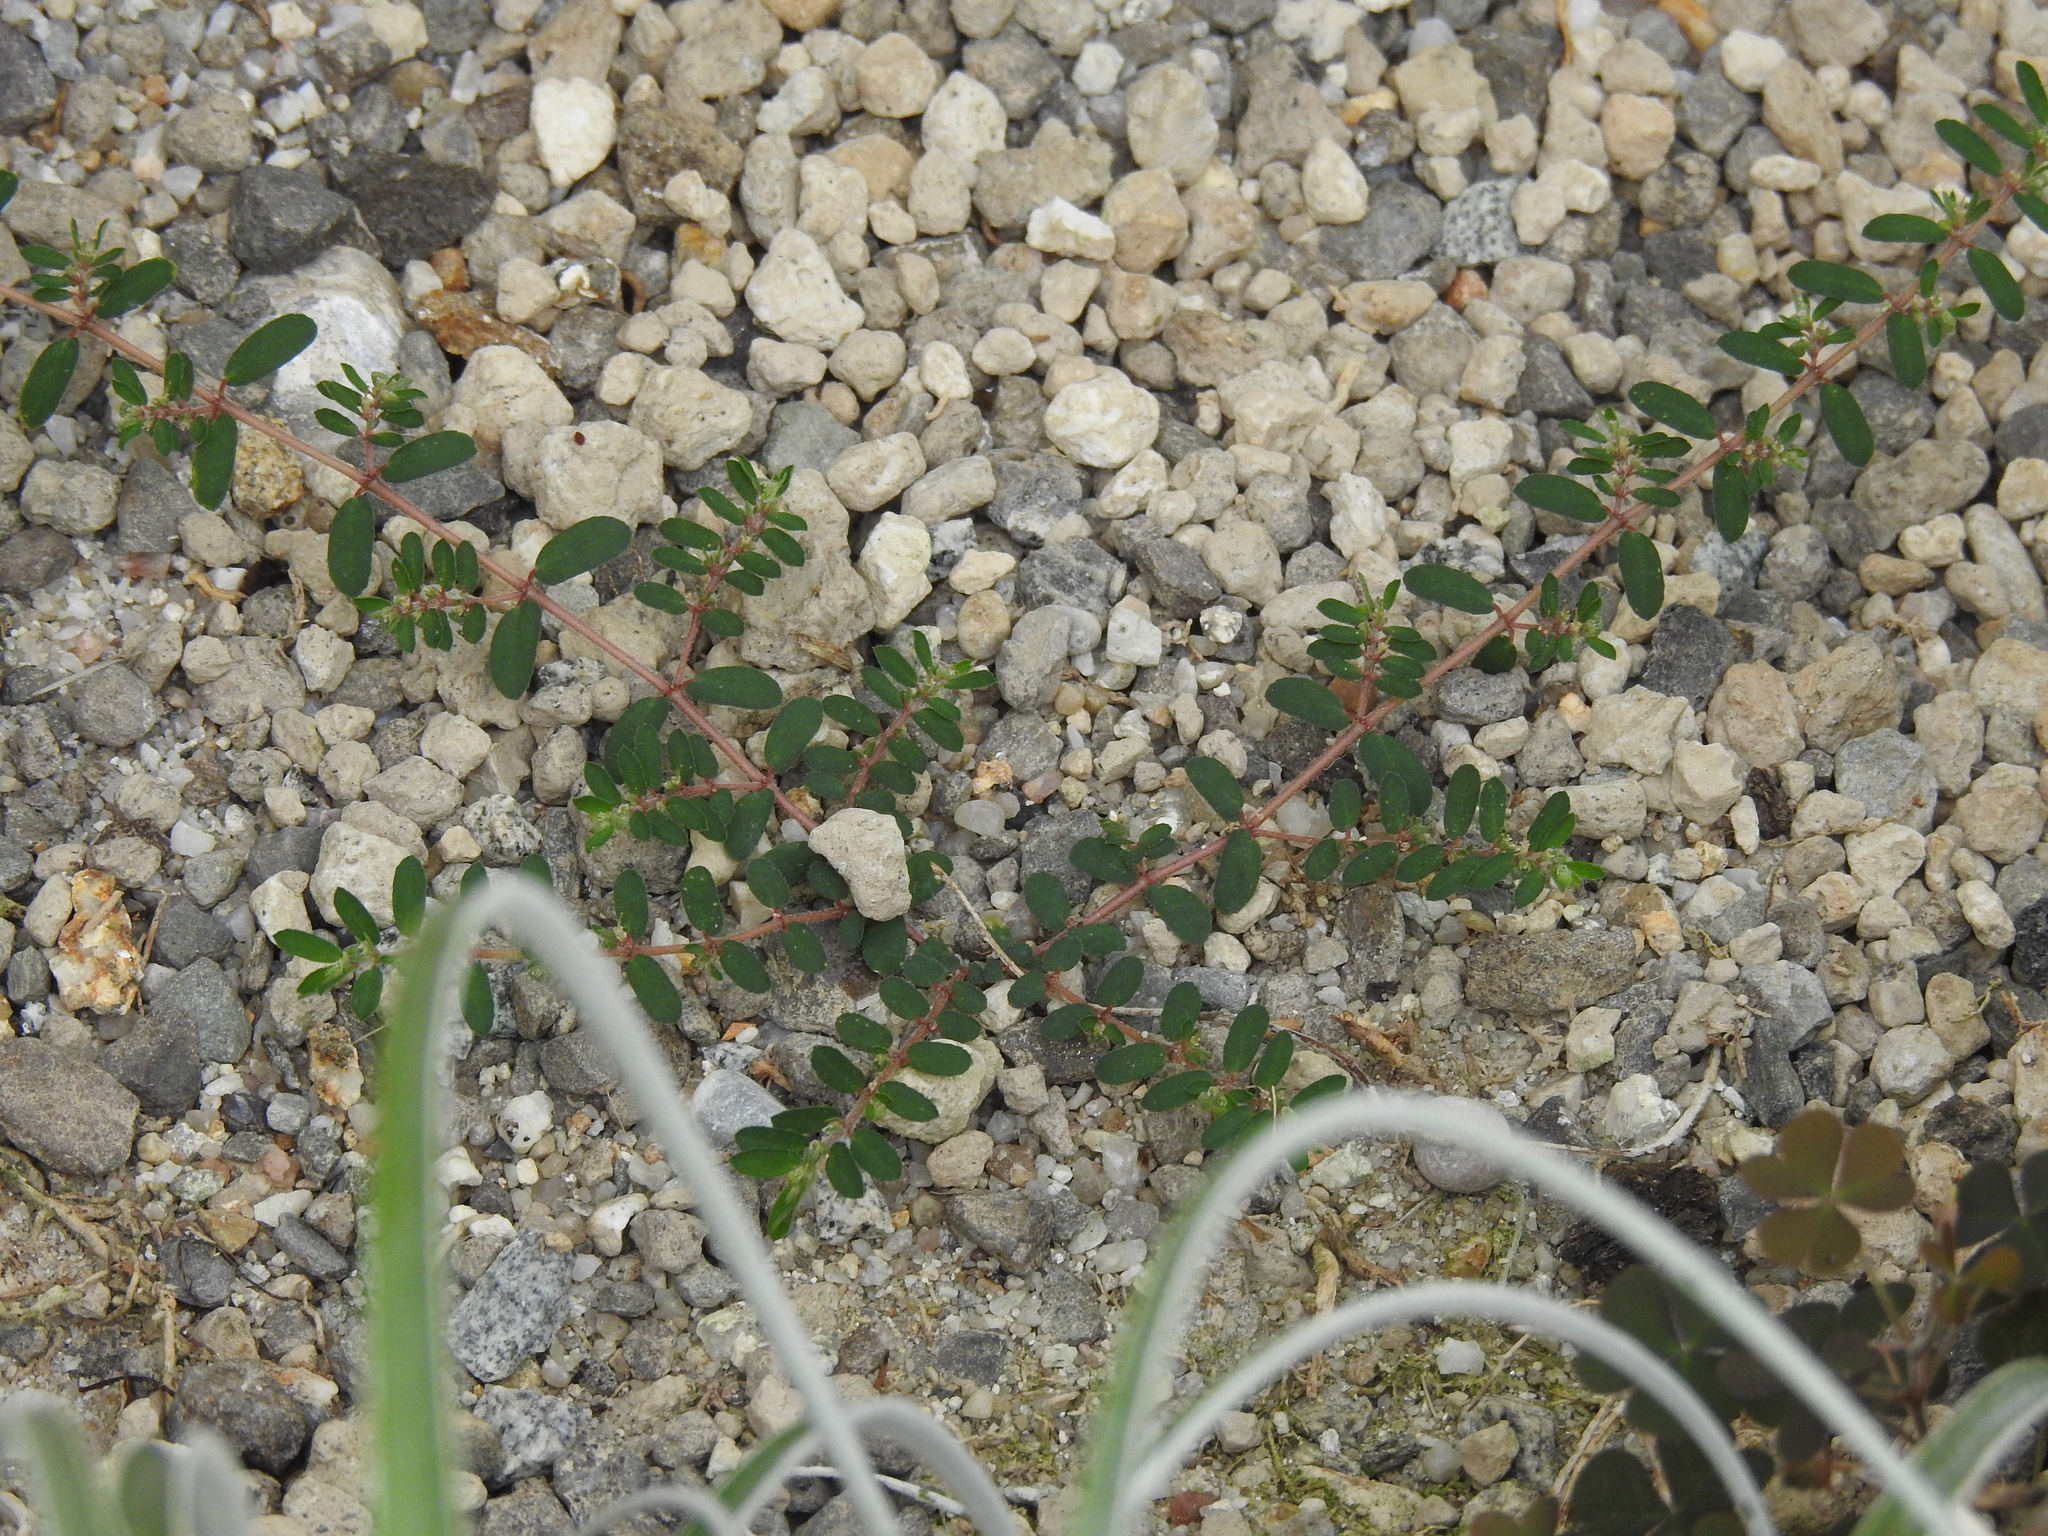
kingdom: Plantae
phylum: Tracheophyta
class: Magnoliopsida
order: Malpighiales
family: Euphorbiaceae
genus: Euphorbia
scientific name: Euphorbia maculata
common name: Spotted spurge
